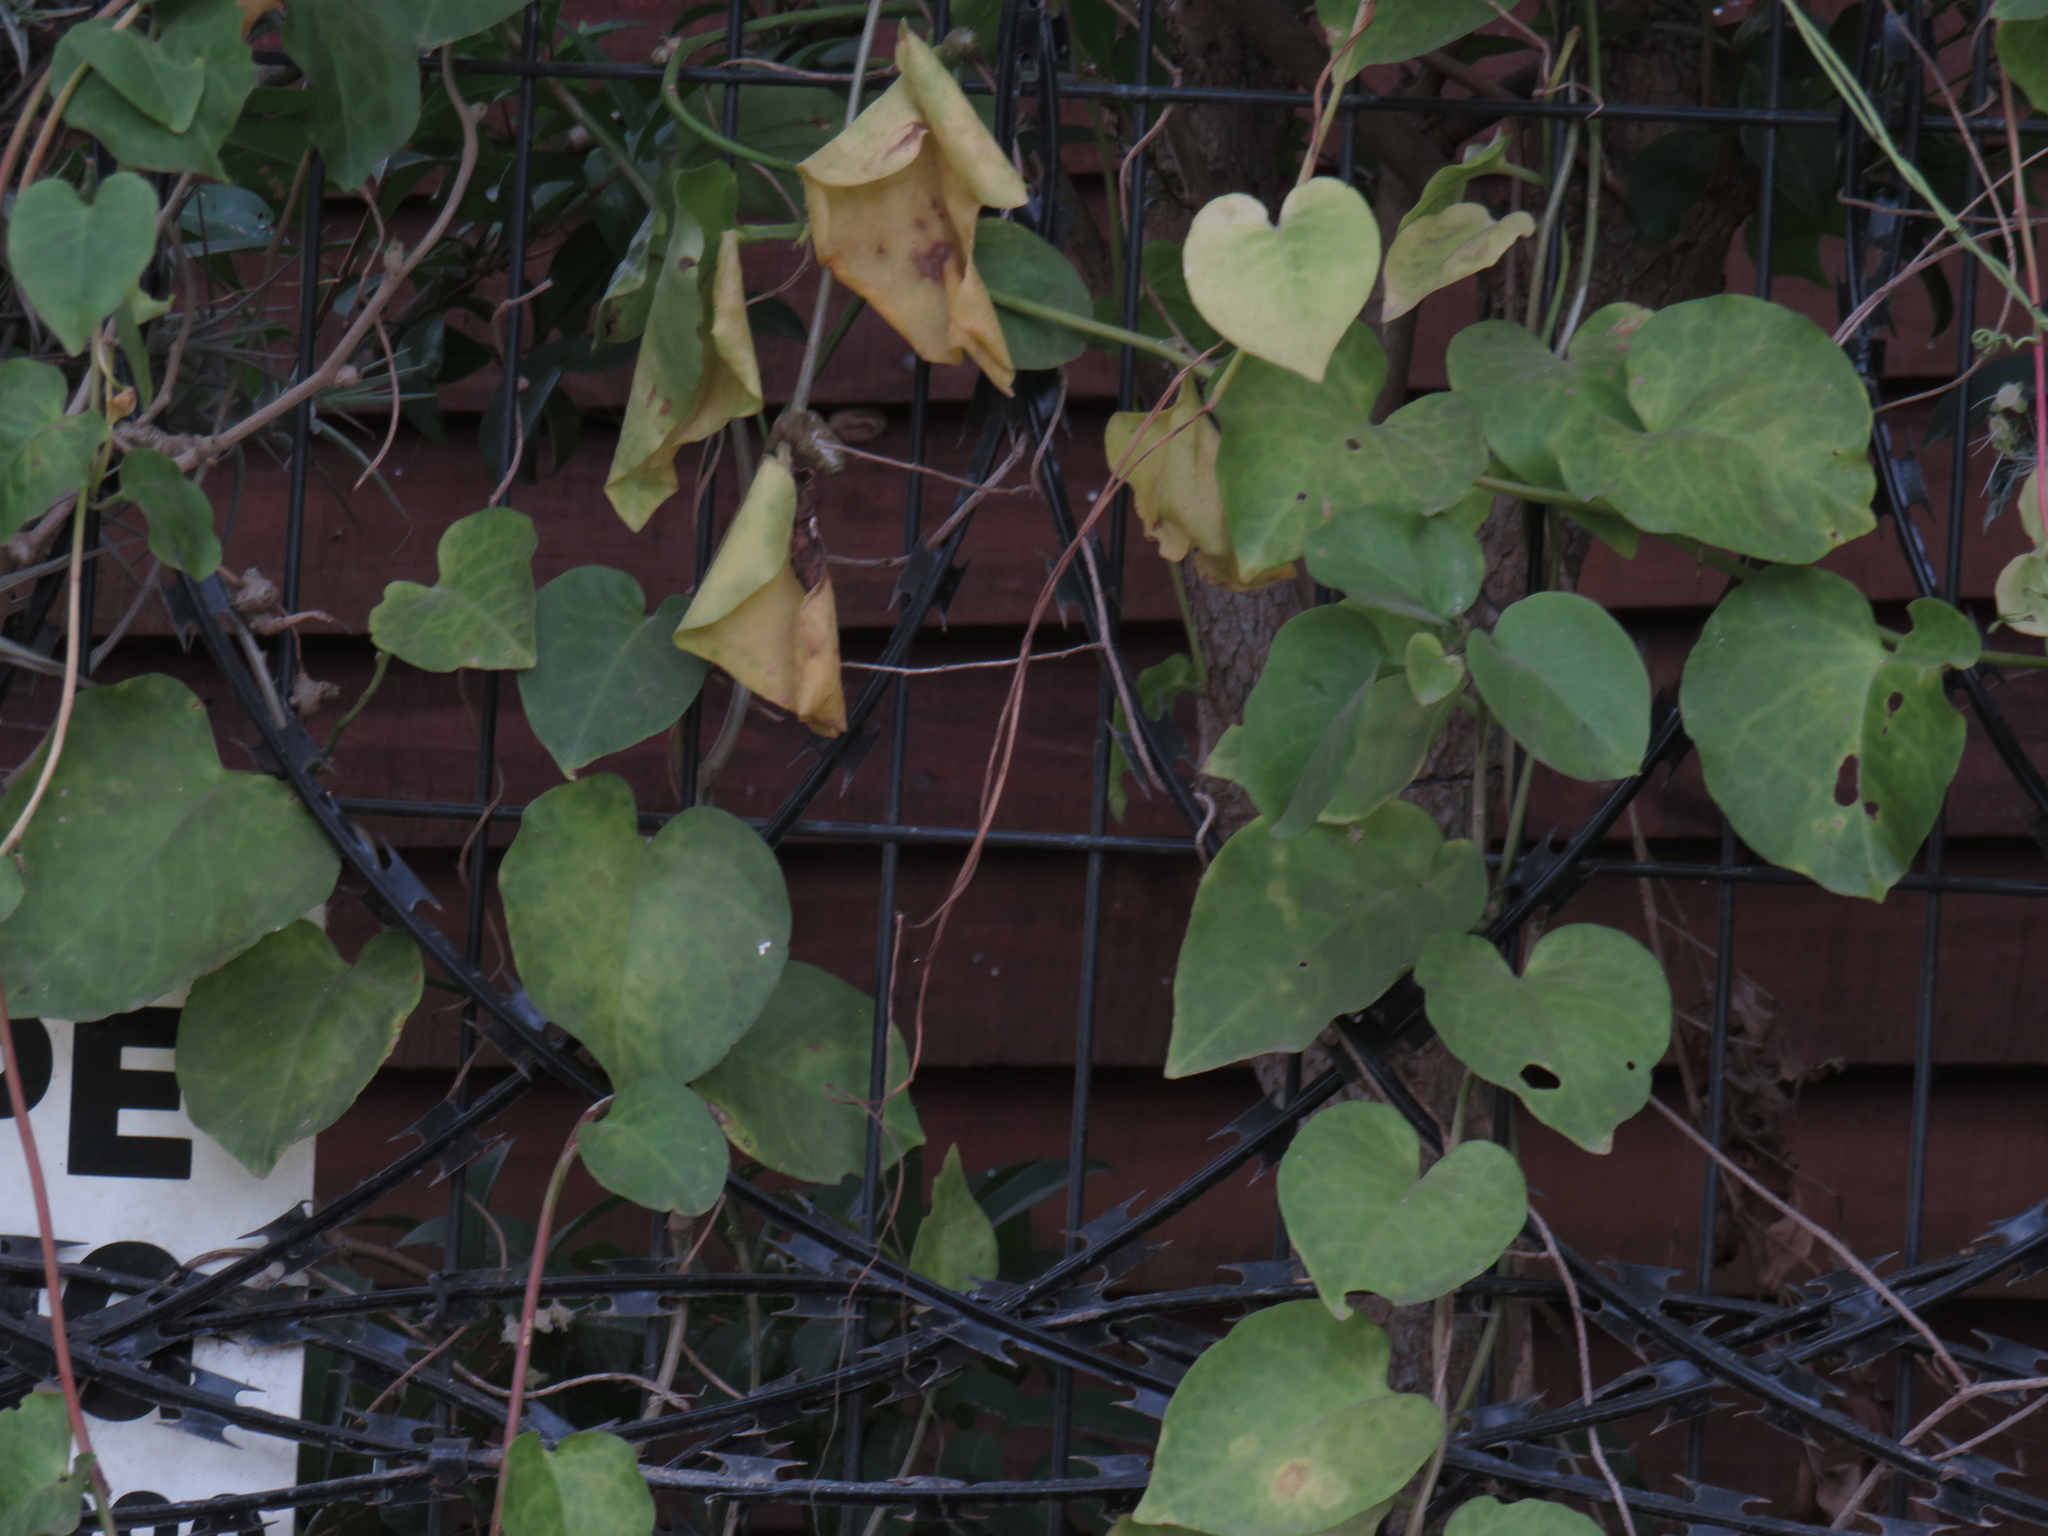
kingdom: Plantae
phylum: Tracheophyta
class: Magnoliopsida
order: Caryophyllales
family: Basellaceae
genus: Anredera
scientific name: Anredera cordifolia
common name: Heartleaf madeiravine
